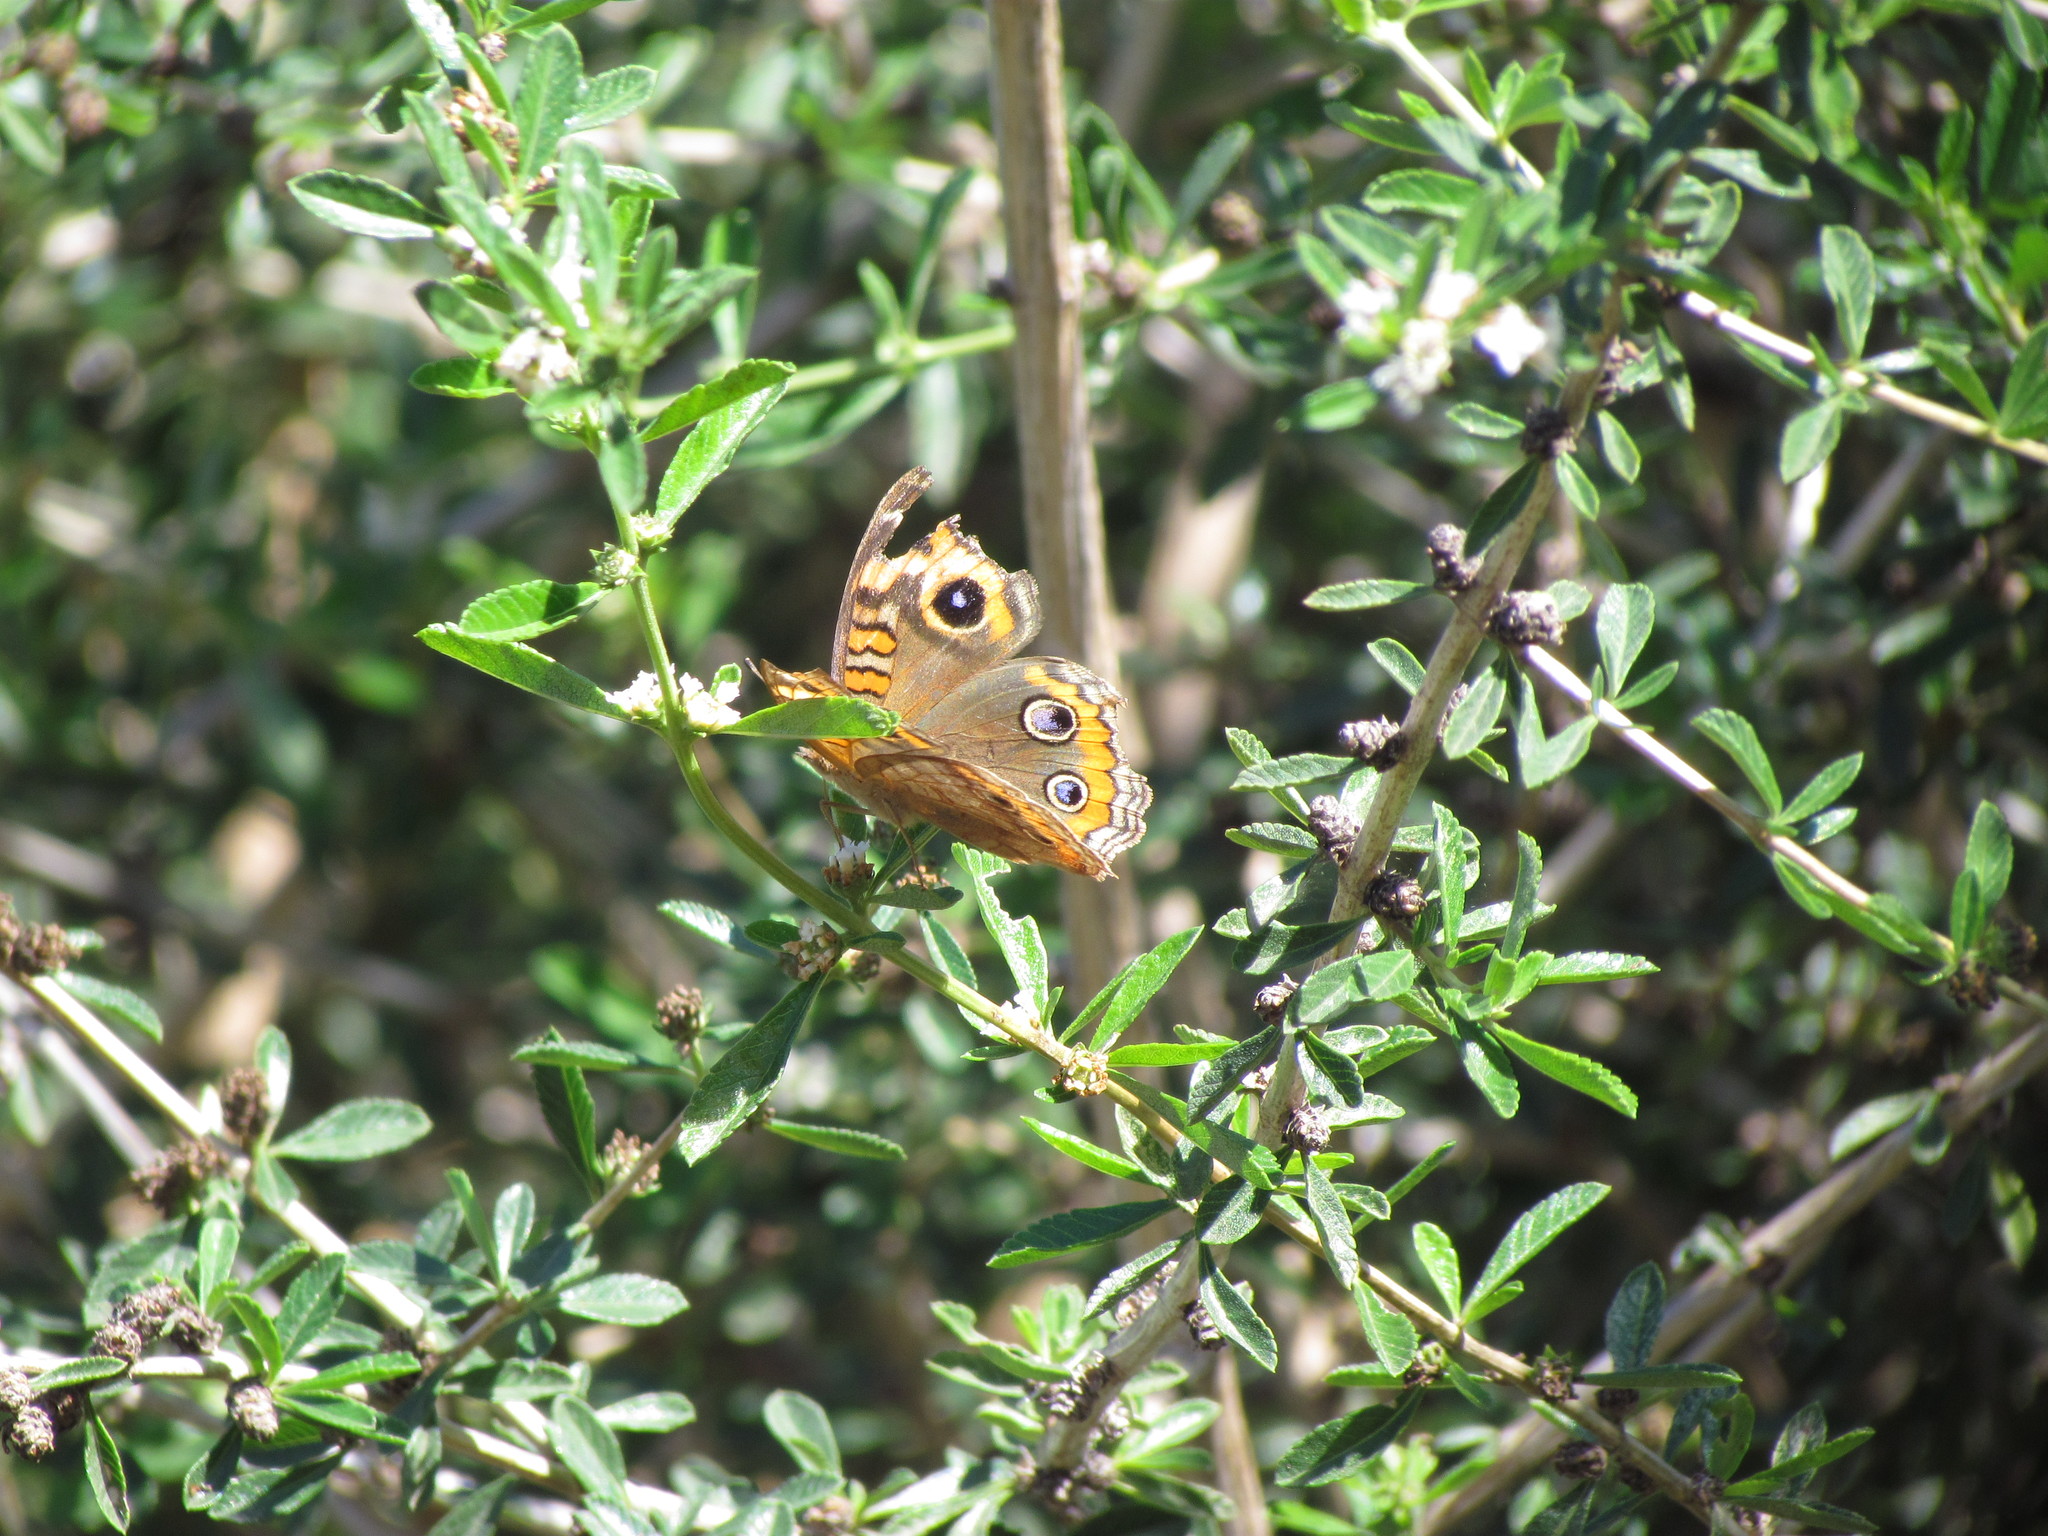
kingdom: Animalia
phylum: Arthropoda
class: Insecta
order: Lepidoptera
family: Nymphalidae
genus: Junonia
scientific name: Junonia lavinia
